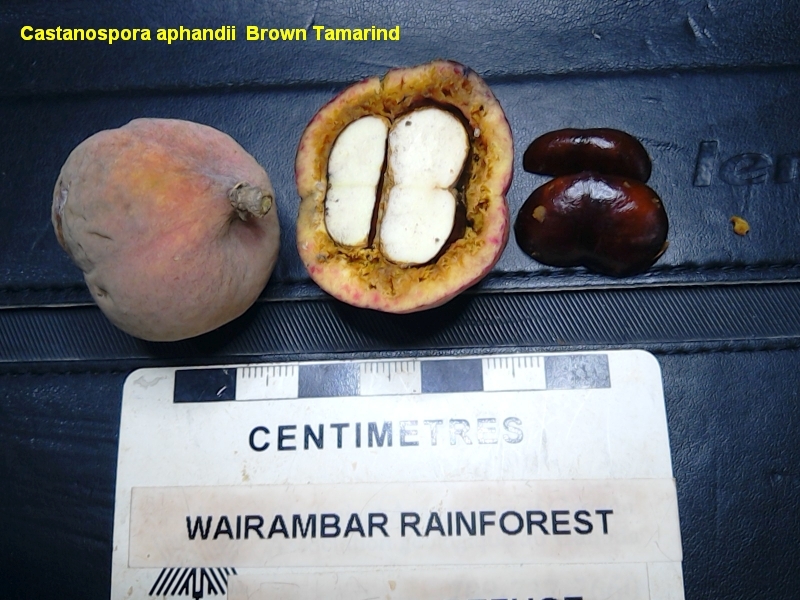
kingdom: Plantae
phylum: Tracheophyta
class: Magnoliopsida
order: Sapindales
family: Sapindaceae
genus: Castanospora
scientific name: Castanospora alphandii
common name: Brown-tamarind
